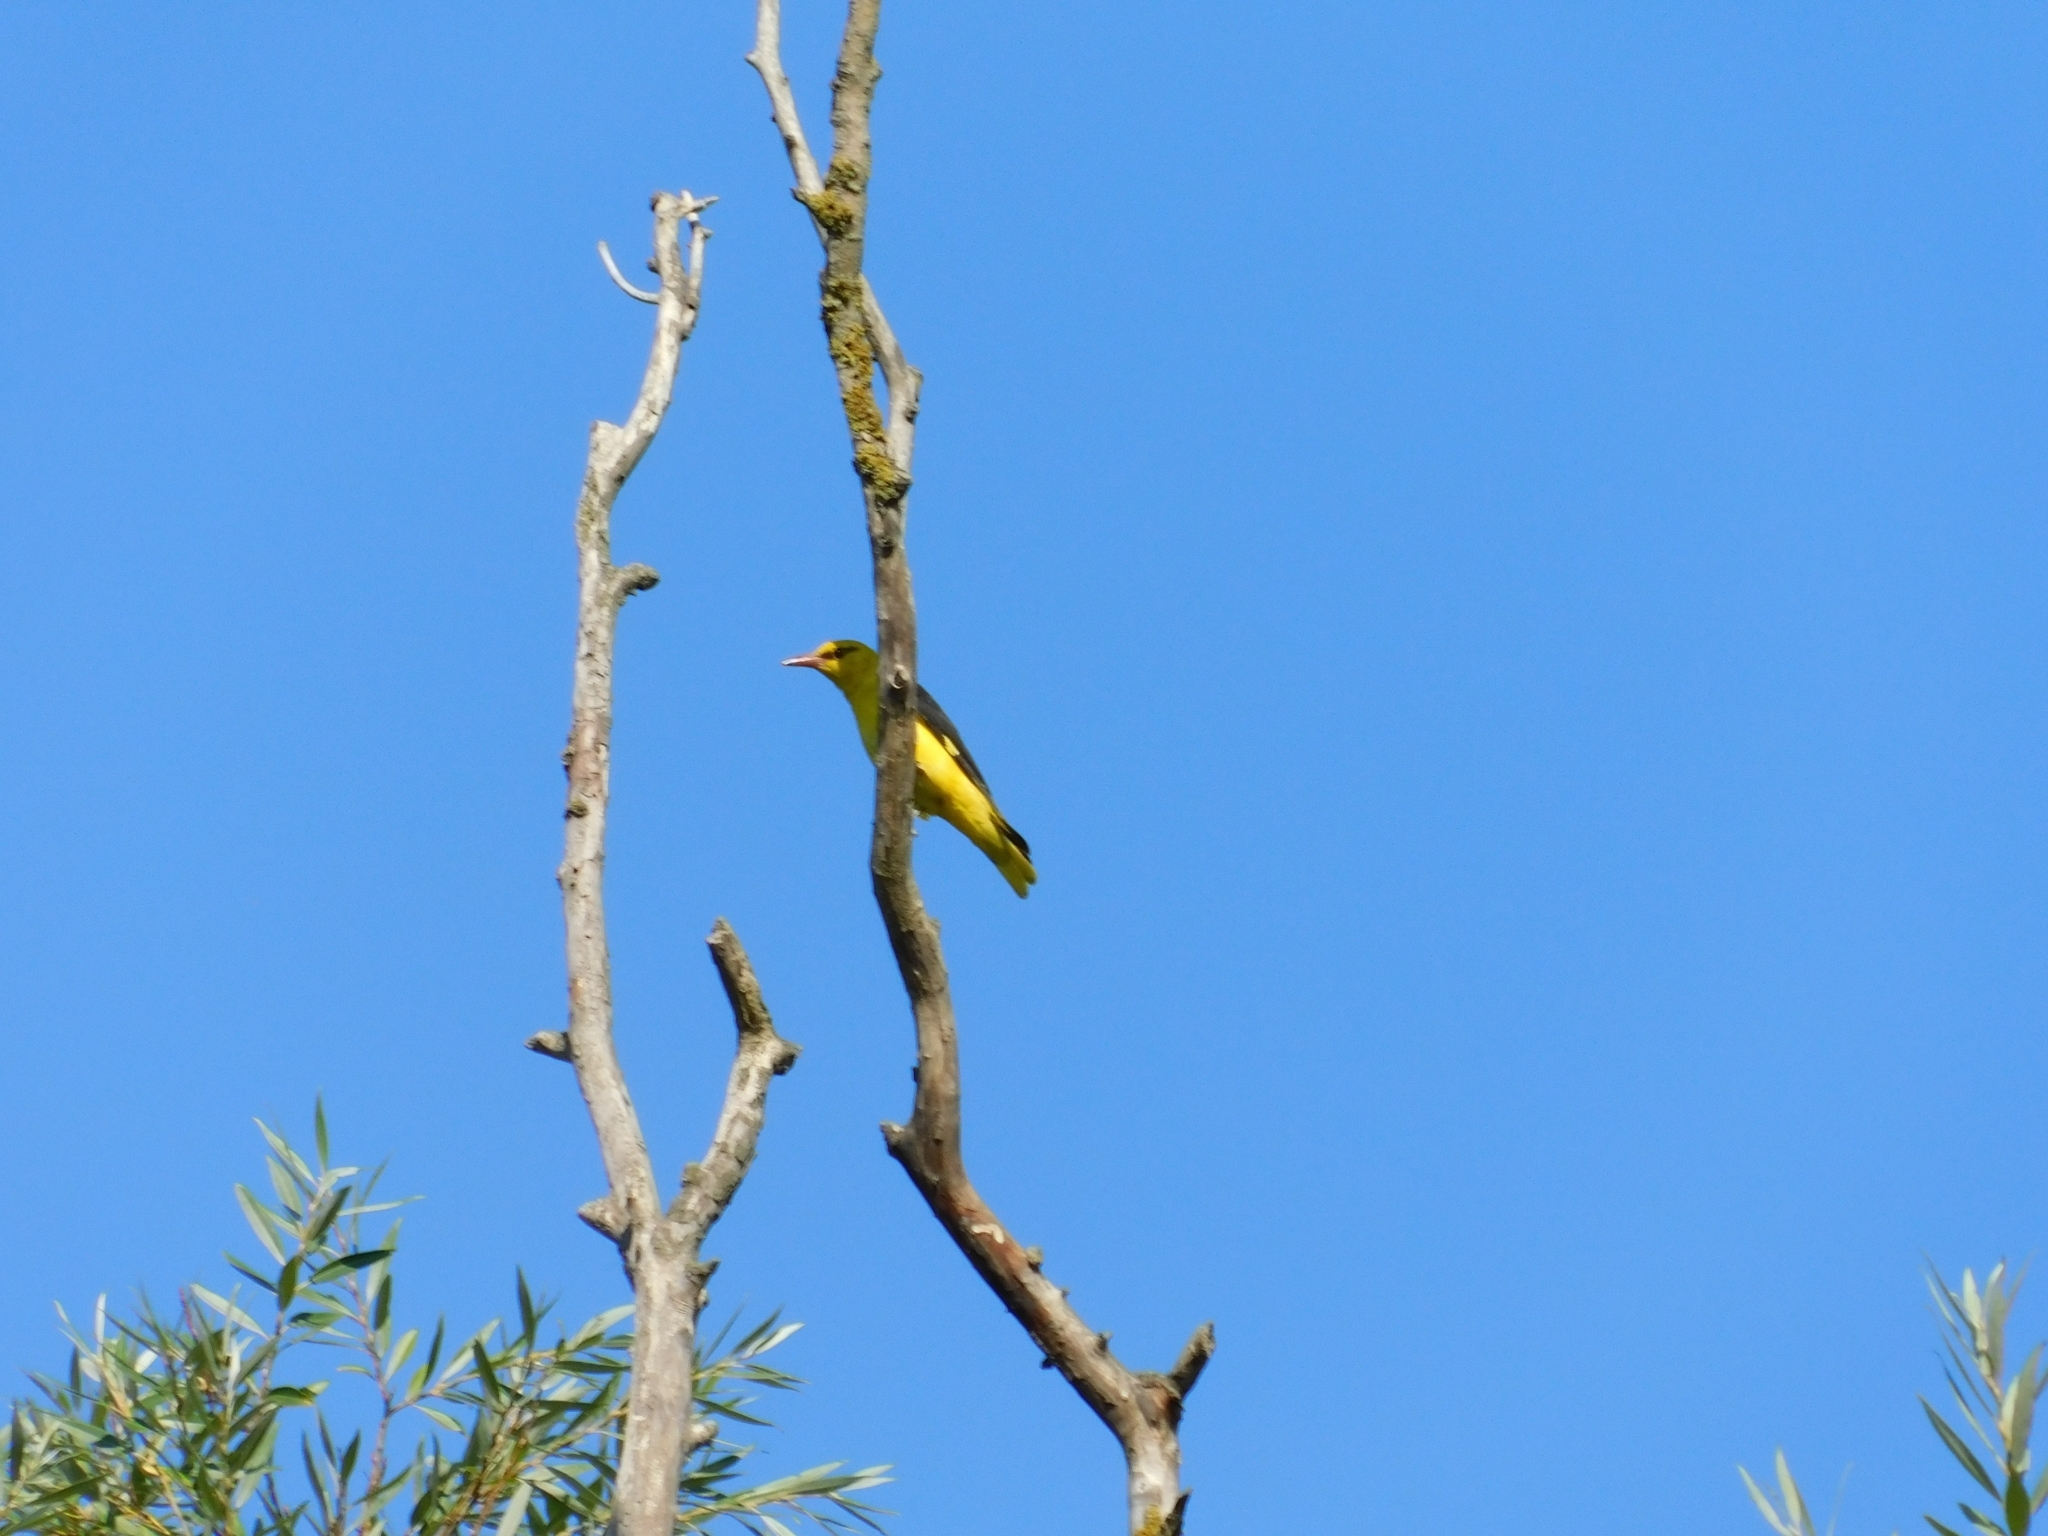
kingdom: Animalia
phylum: Chordata
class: Aves
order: Passeriformes
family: Oriolidae
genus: Oriolus
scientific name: Oriolus oriolus
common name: Eurasian golden oriole
